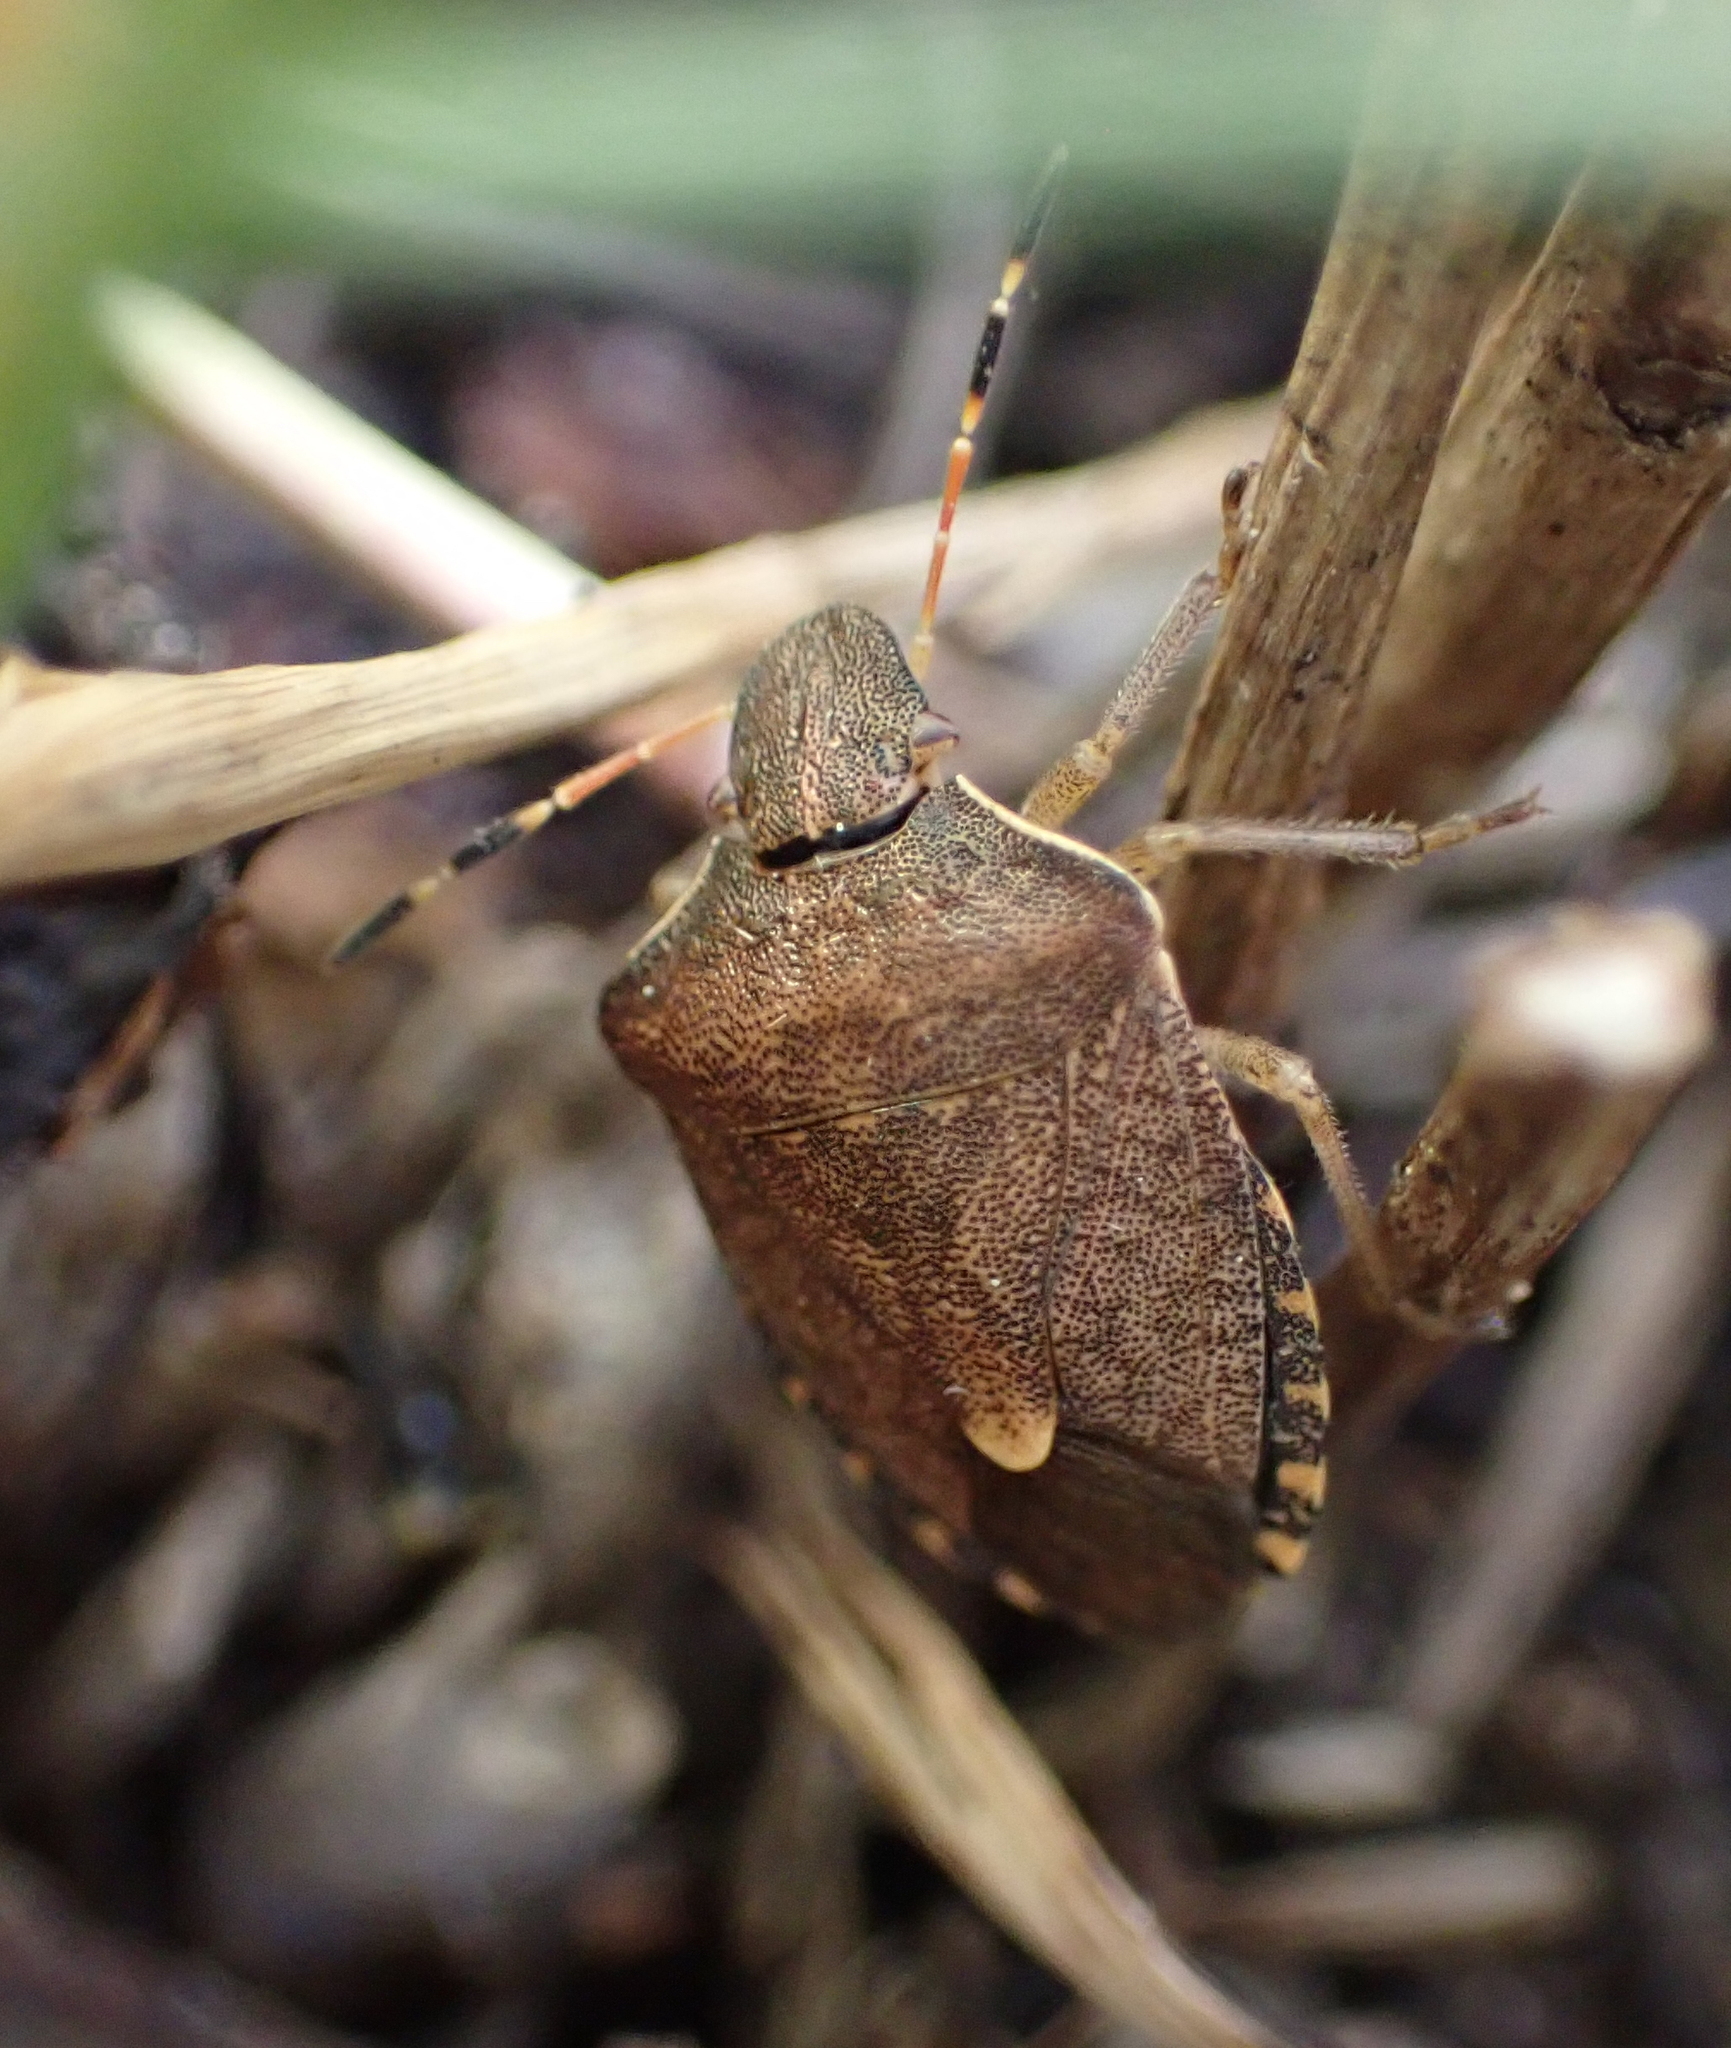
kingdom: Animalia
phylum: Arthropoda
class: Insecta
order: Hemiptera
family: Pentatomidae
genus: Holcostethus
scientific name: Holcostethus strictus
